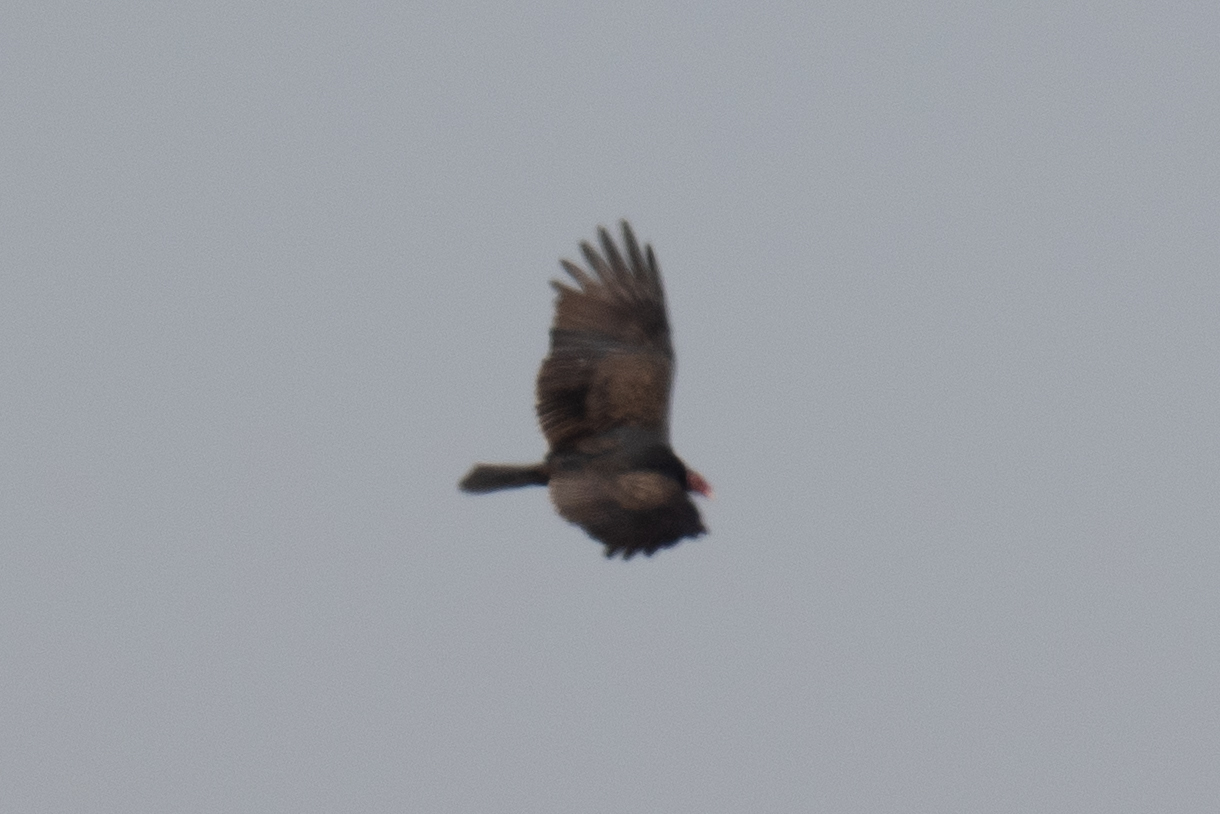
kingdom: Animalia
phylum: Chordata
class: Aves
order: Accipitriformes
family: Cathartidae
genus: Cathartes
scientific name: Cathartes aura
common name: Turkey vulture
